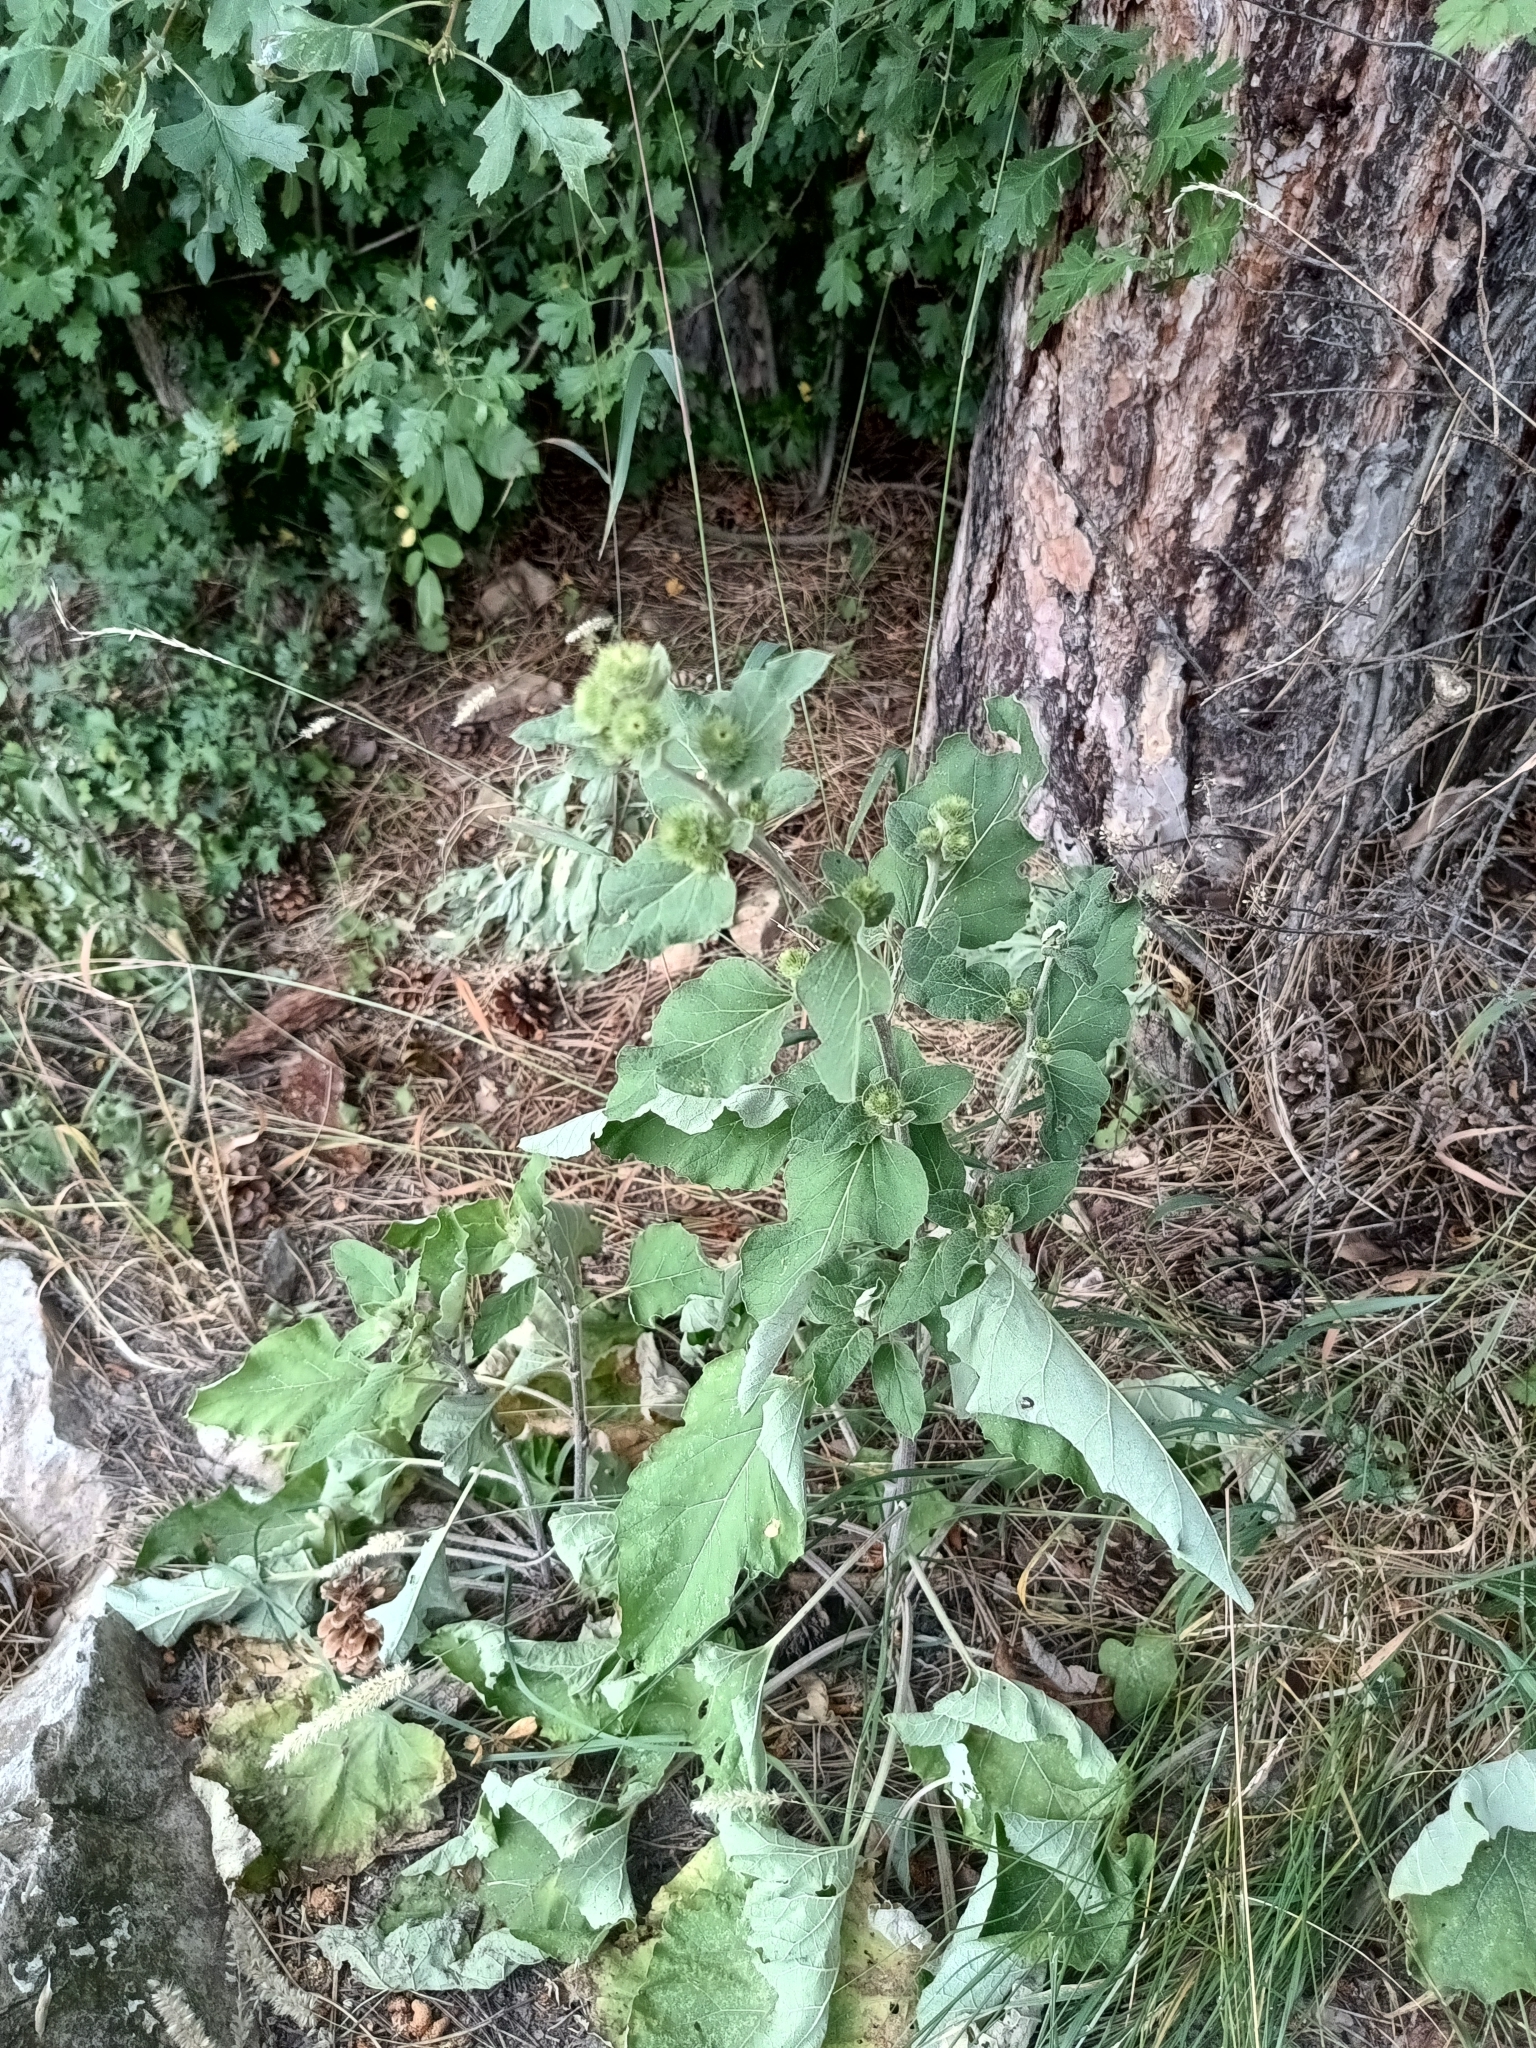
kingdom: Plantae
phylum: Tracheophyta
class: Magnoliopsida
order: Asterales
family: Asteraceae
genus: Arctium
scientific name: Arctium minus
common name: Lesser burdock
